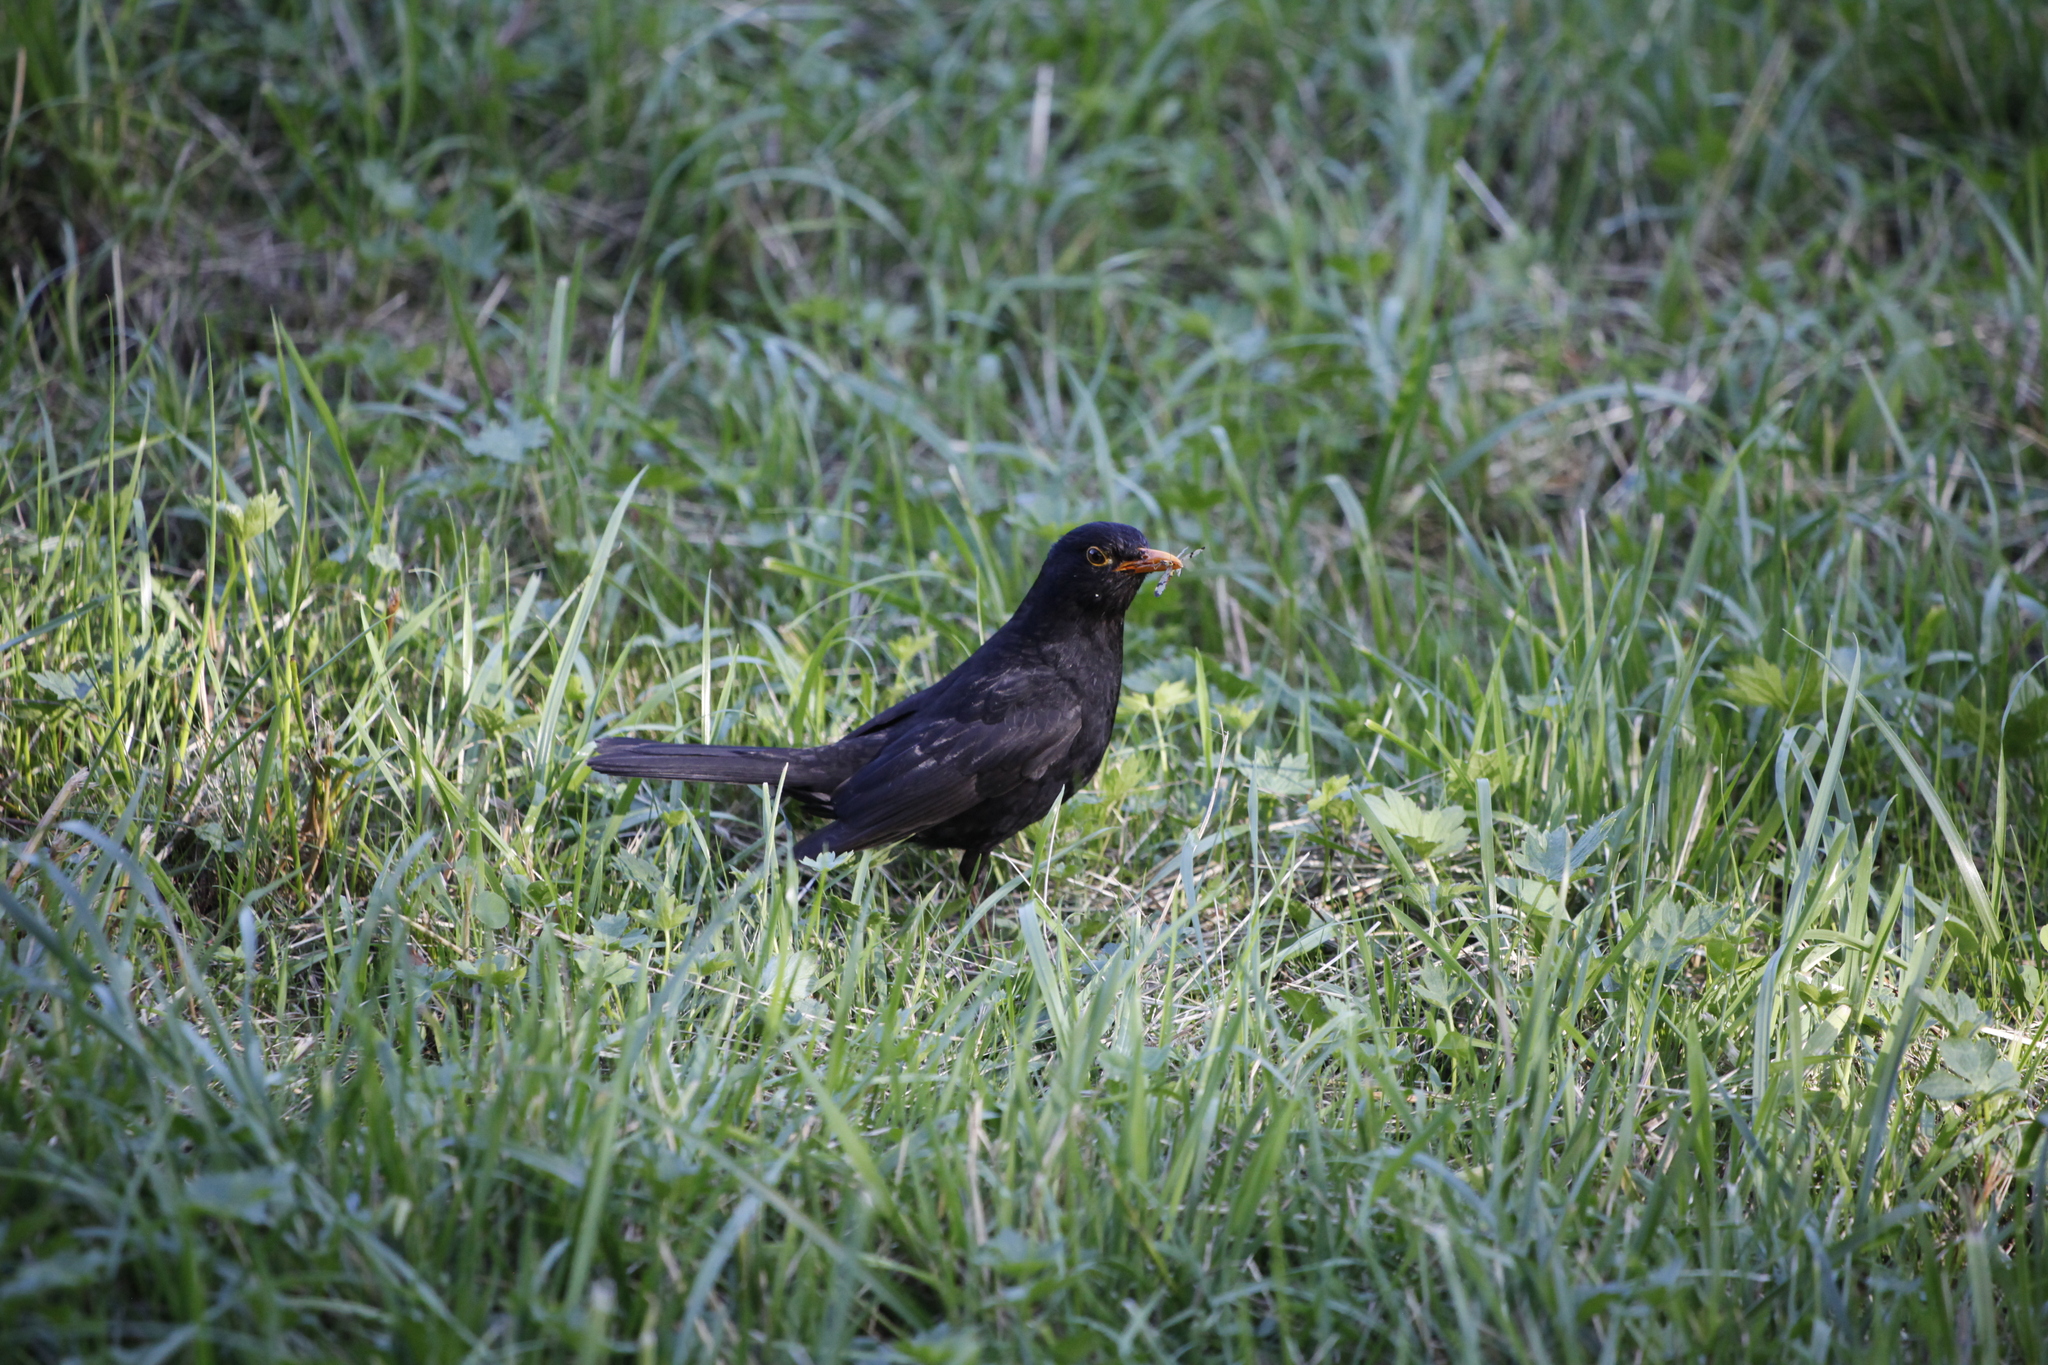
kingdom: Animalia
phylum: Chordata
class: Aves
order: Passeriformes
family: Turdidae
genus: Turdus
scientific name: Turdus merula
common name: Common blackbird
